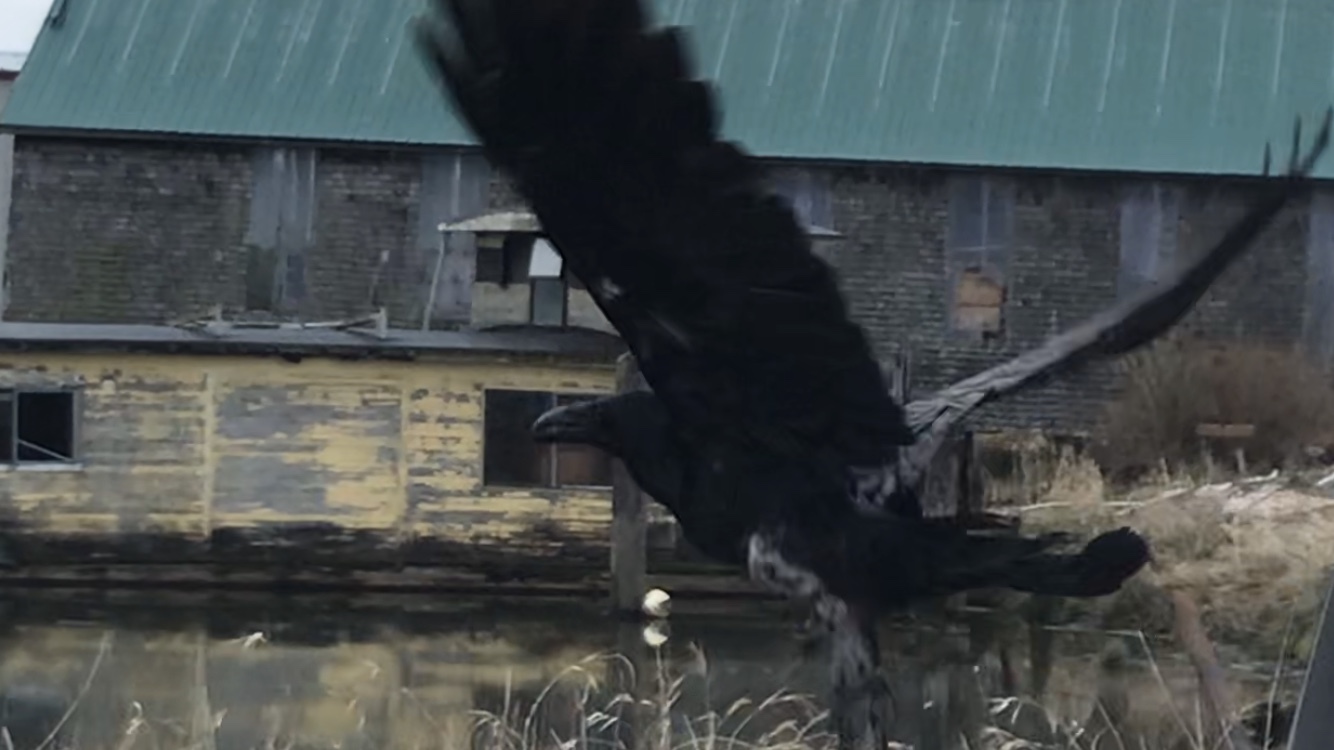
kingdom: Animalia
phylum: Chordata
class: Aves
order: Passeriformes
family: Corvidae
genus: Corvus
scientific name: Corvus corax
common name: Common raven
